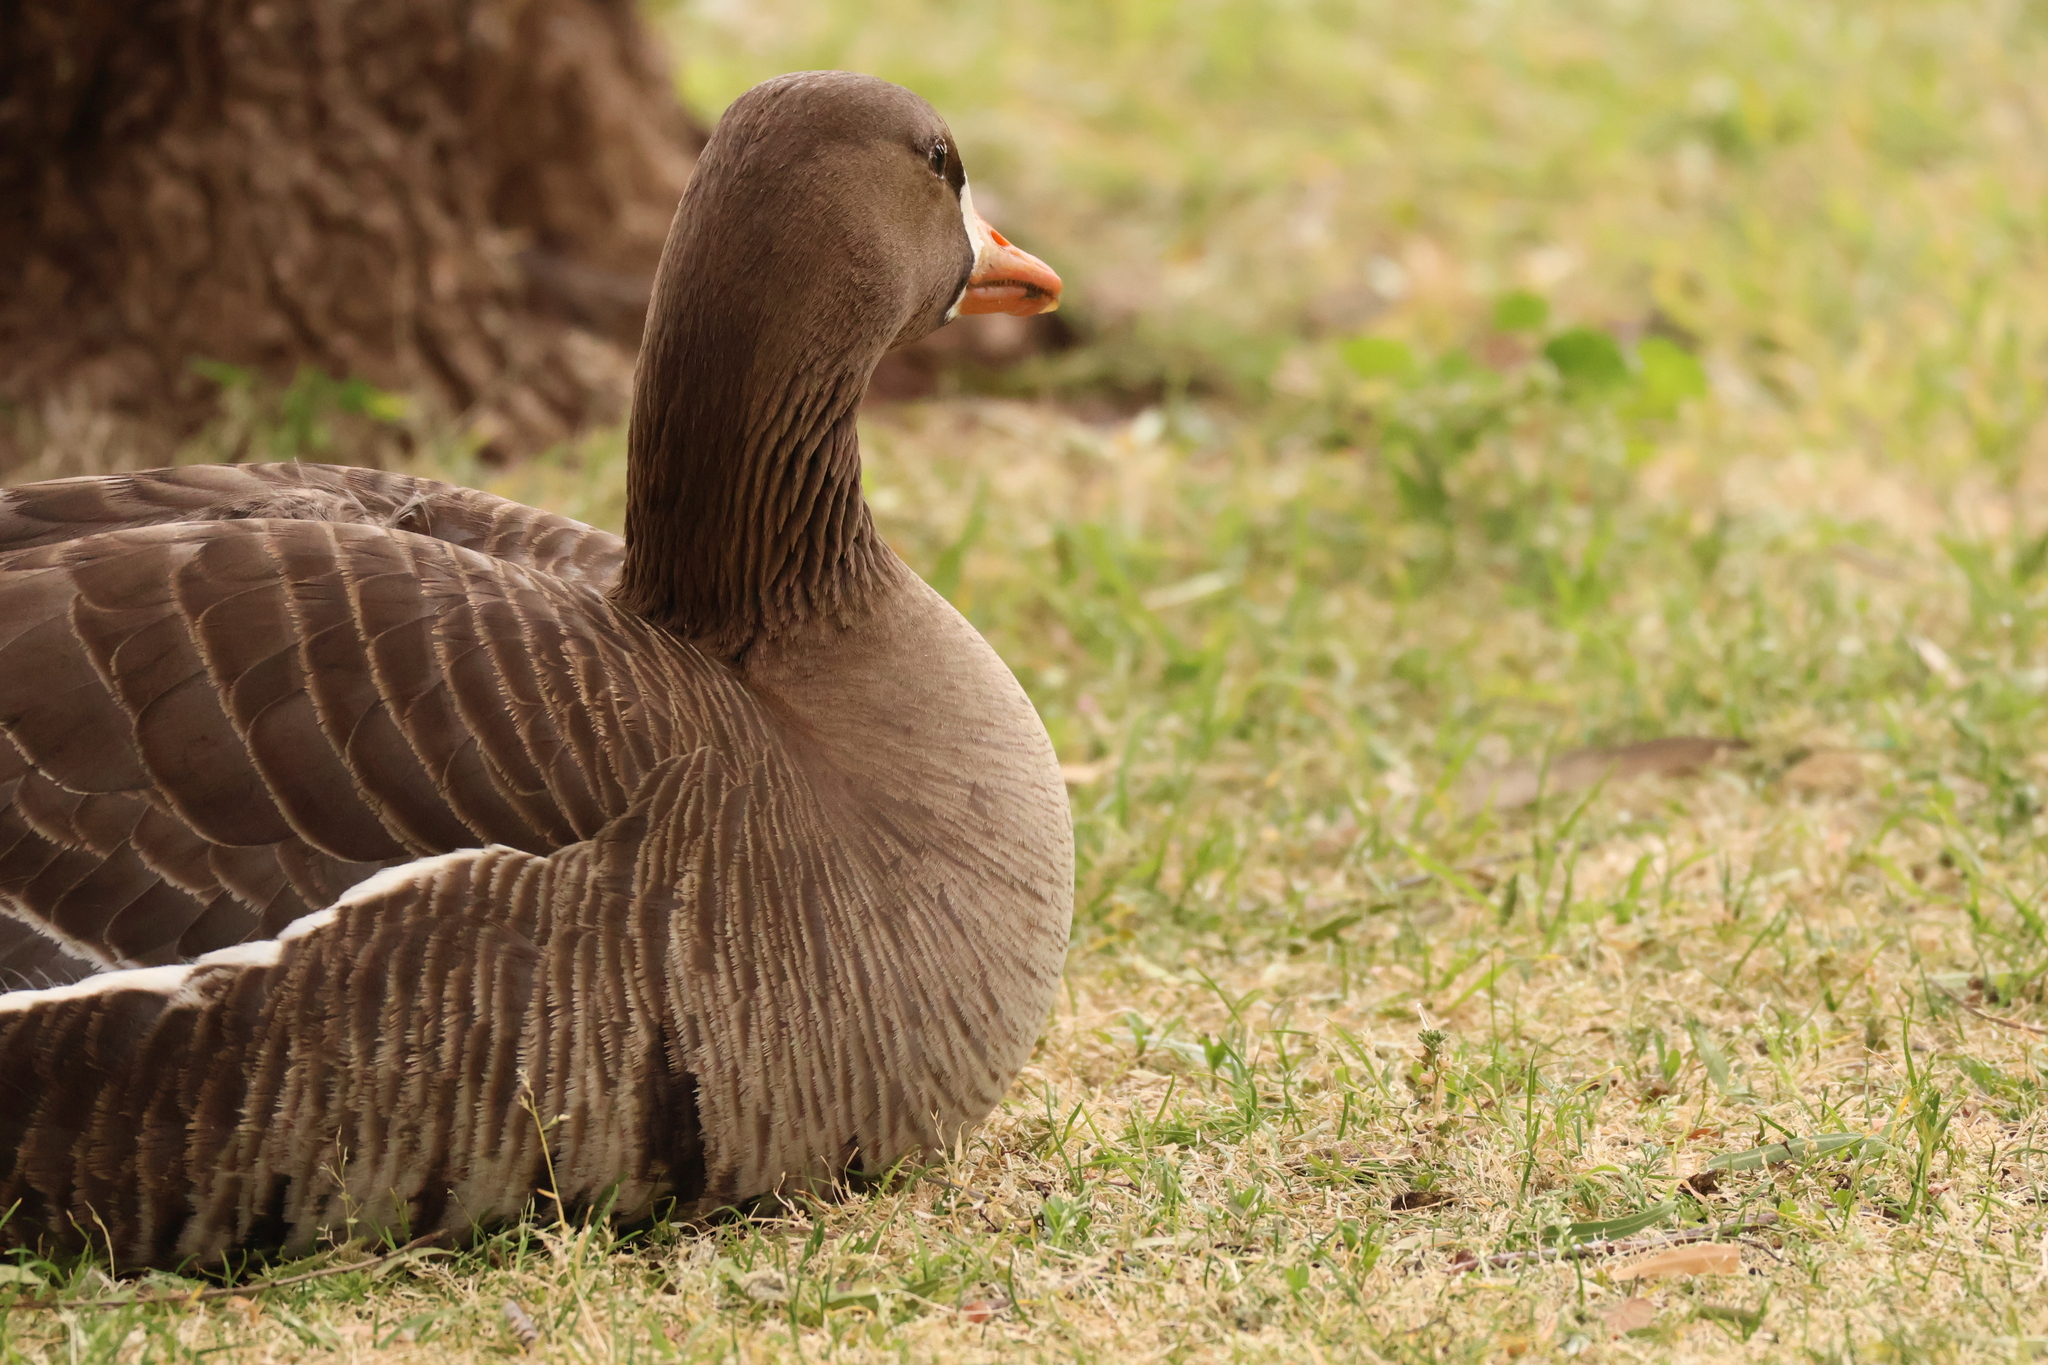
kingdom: Animalia
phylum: Chordata
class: Aves
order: Anseriformes
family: Anatidae
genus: Anser
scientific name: Anser albifrons
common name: Greater white-fronted goose
